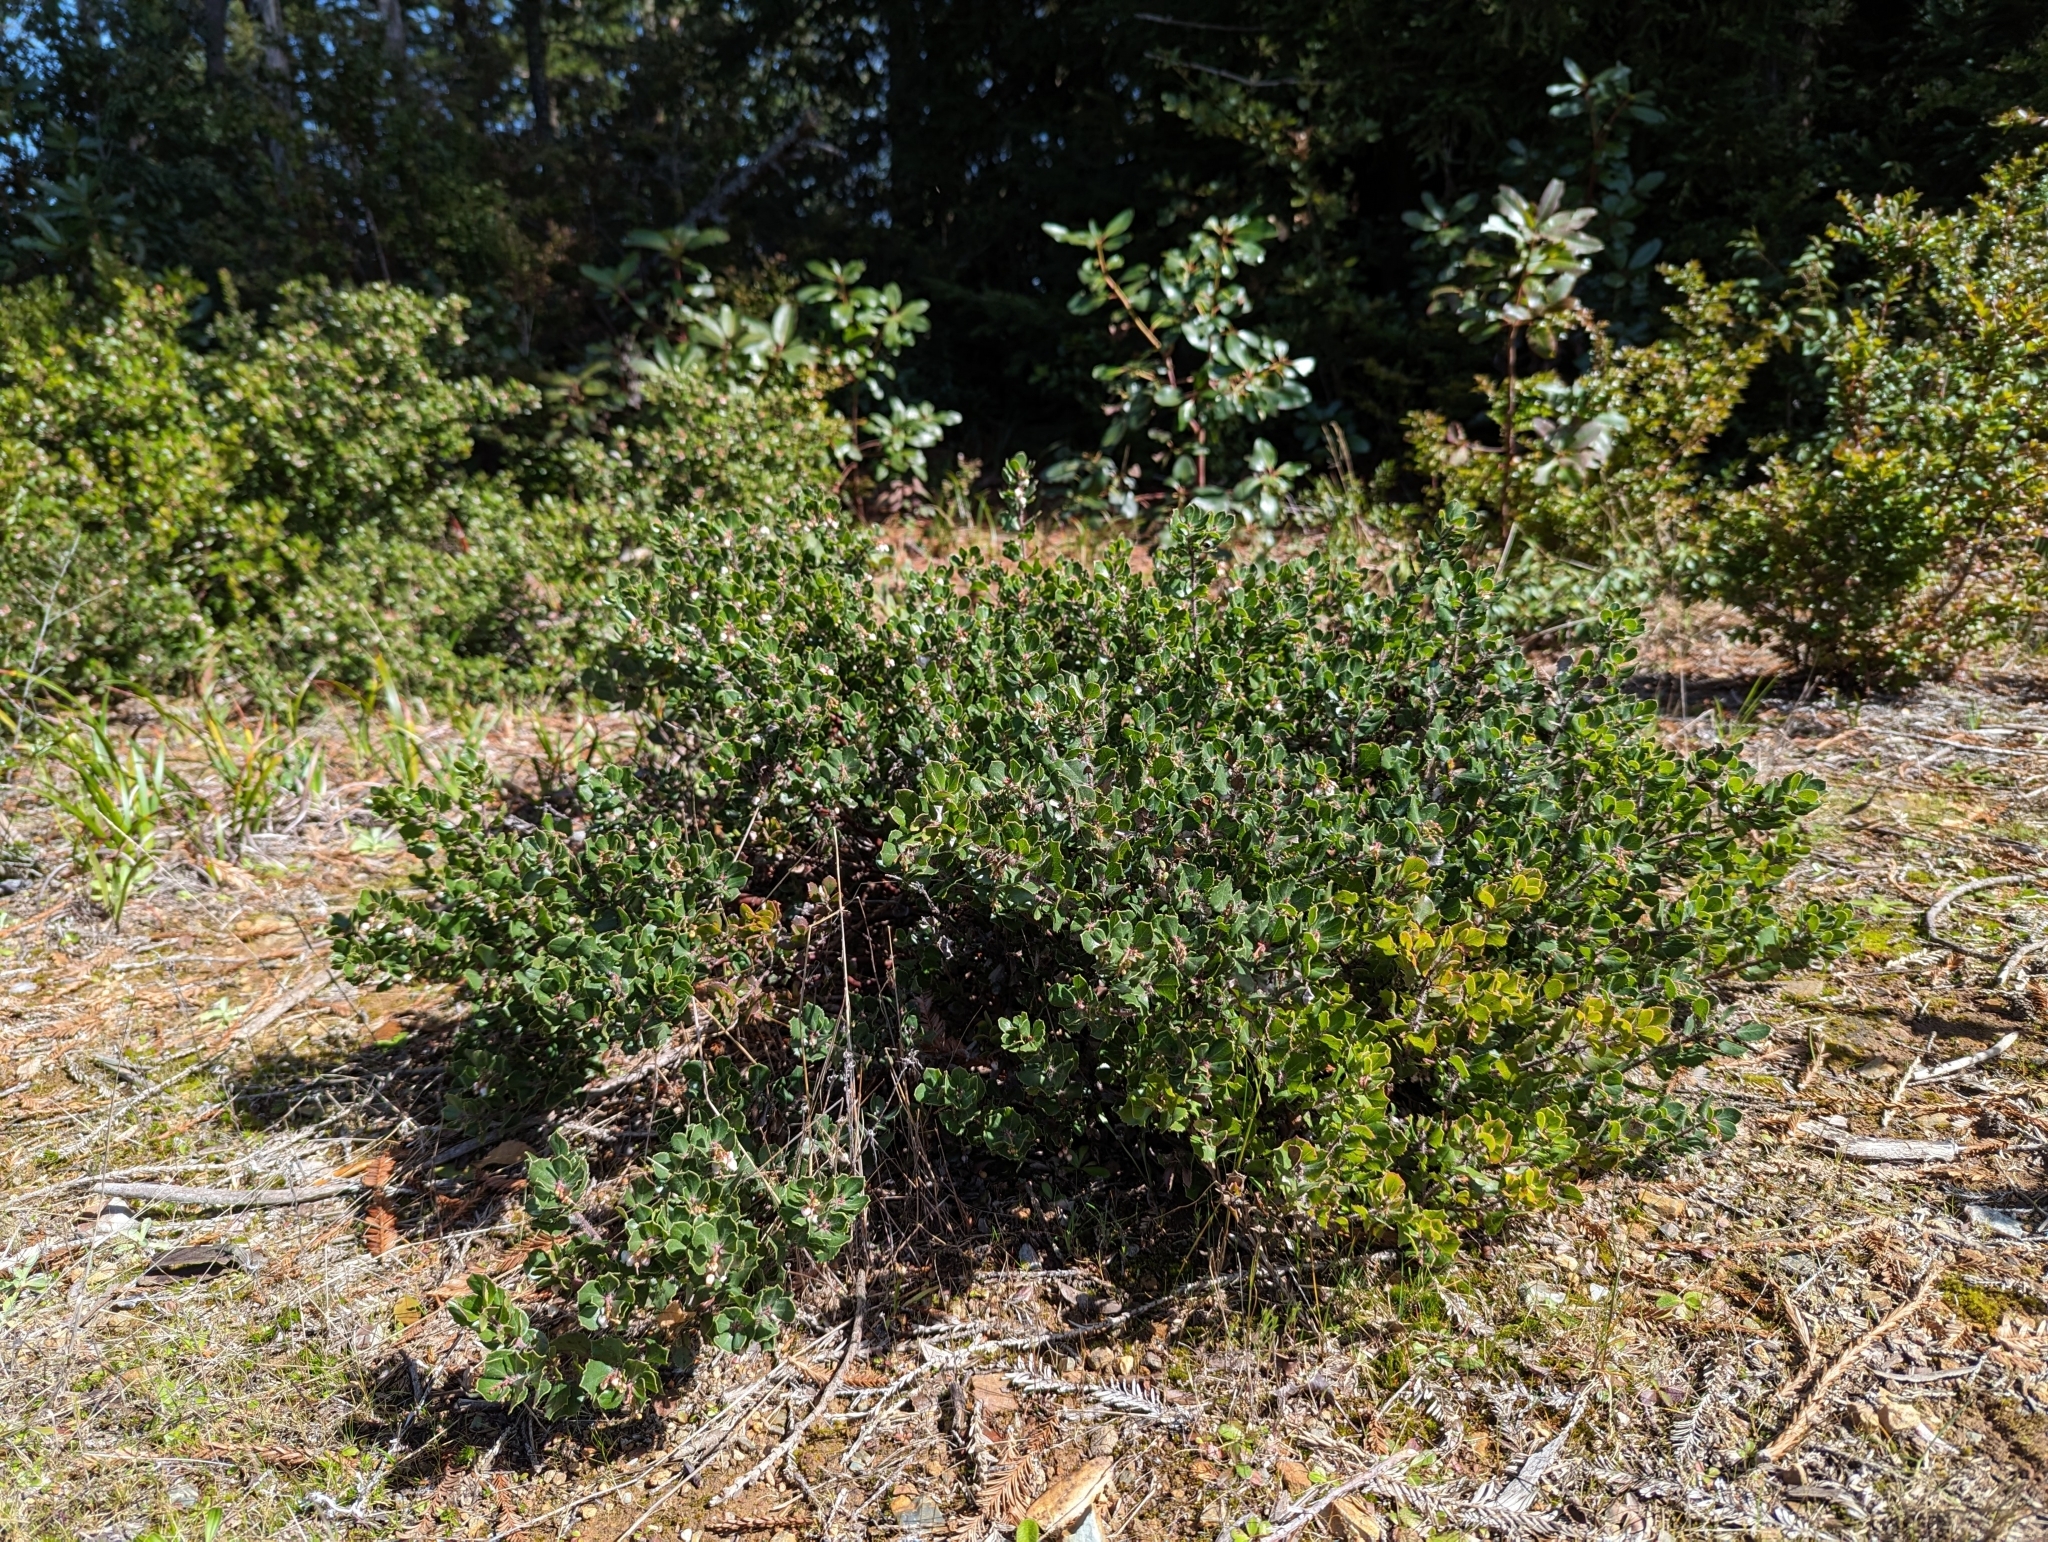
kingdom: Plantae
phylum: Tracheophyta
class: Magnoliopsida
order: Ericales
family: Ericaceae
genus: Arctostaphylos
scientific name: Arctostaphylos nummularia
